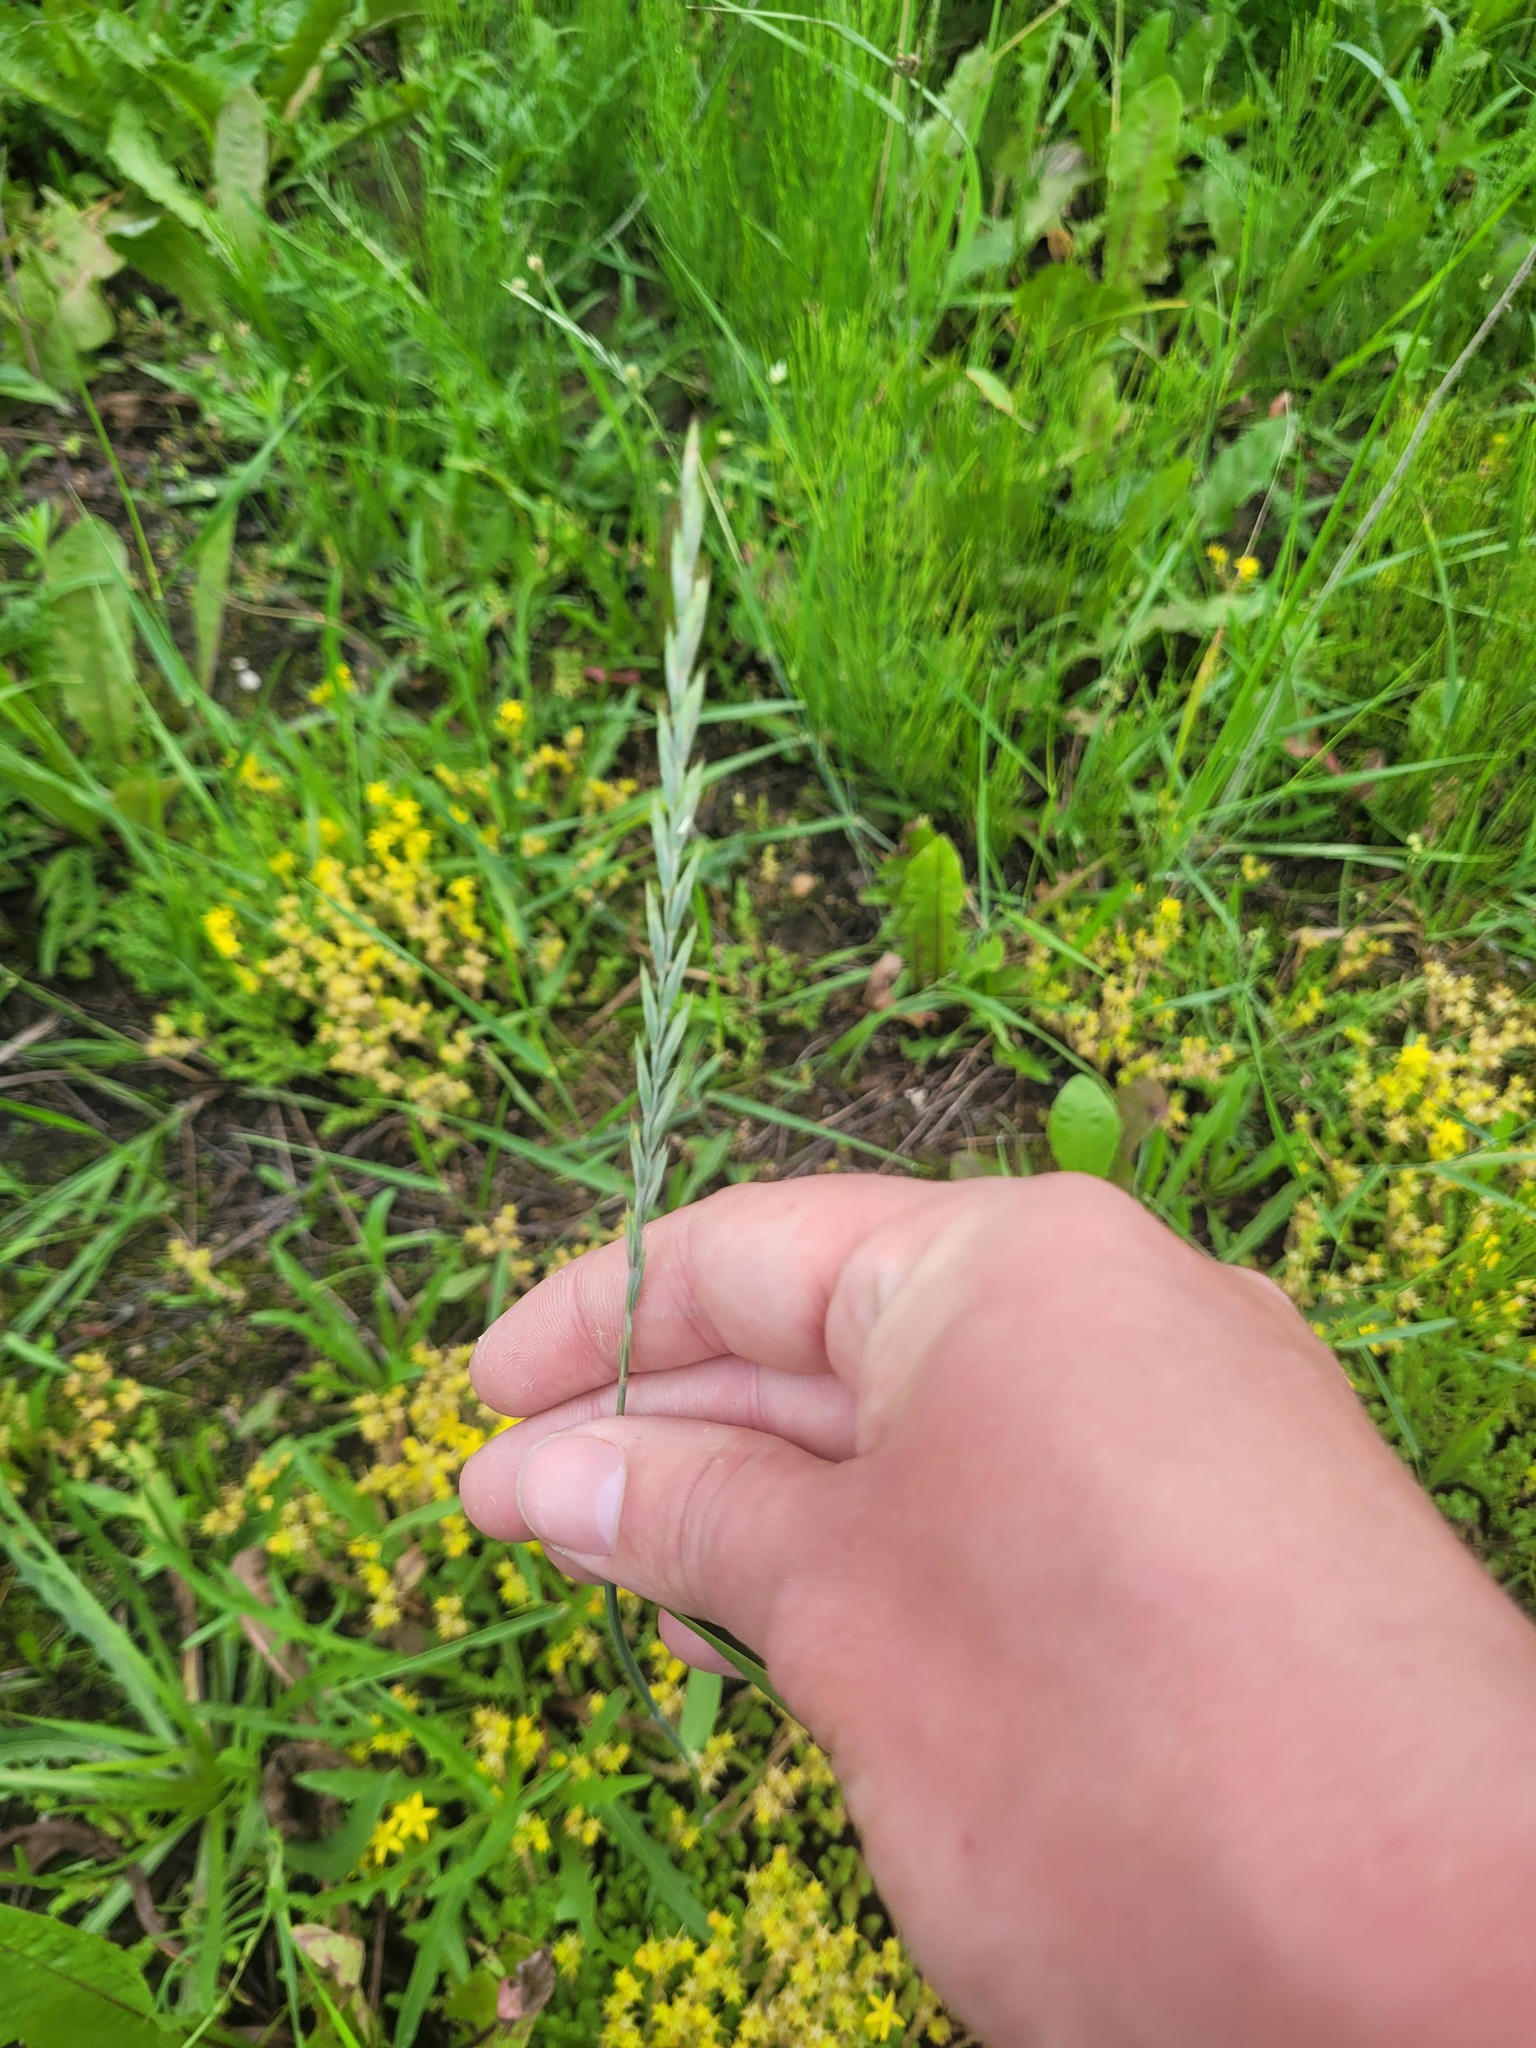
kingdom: Plantae
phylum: Tracheophyta
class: Liliopsida
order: Poales
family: Poaceae
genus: Elymus
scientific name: Elymus repens
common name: Quackgrass
